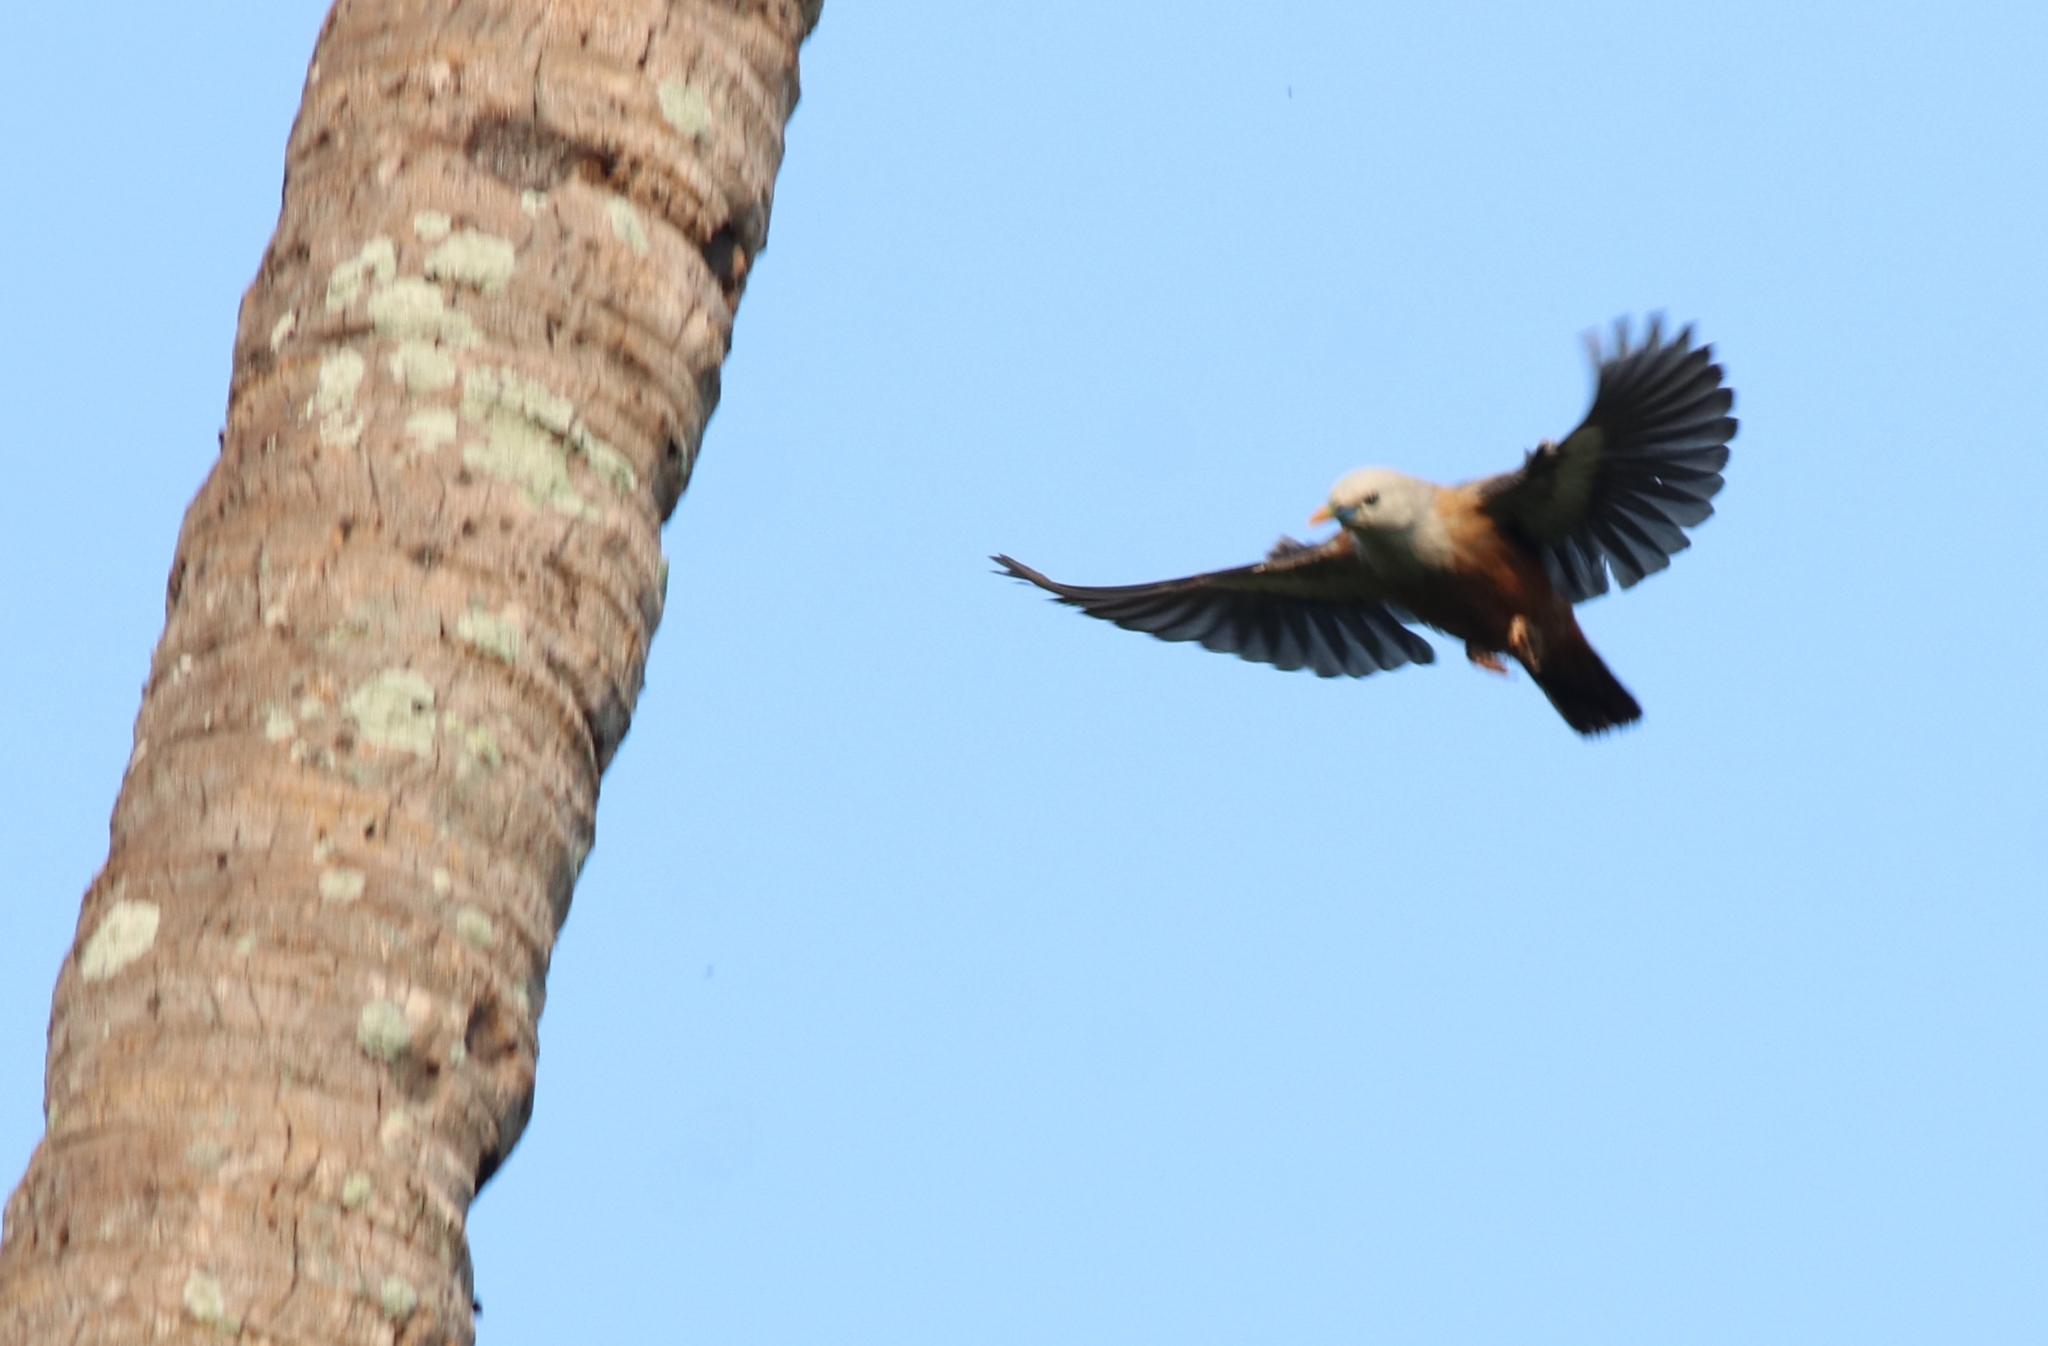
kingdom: Animalia
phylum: Chordata
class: Aves
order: Passeriformes
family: Sturnidae
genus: Sturnia
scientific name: Sturnia blythii
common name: Malabar starling
